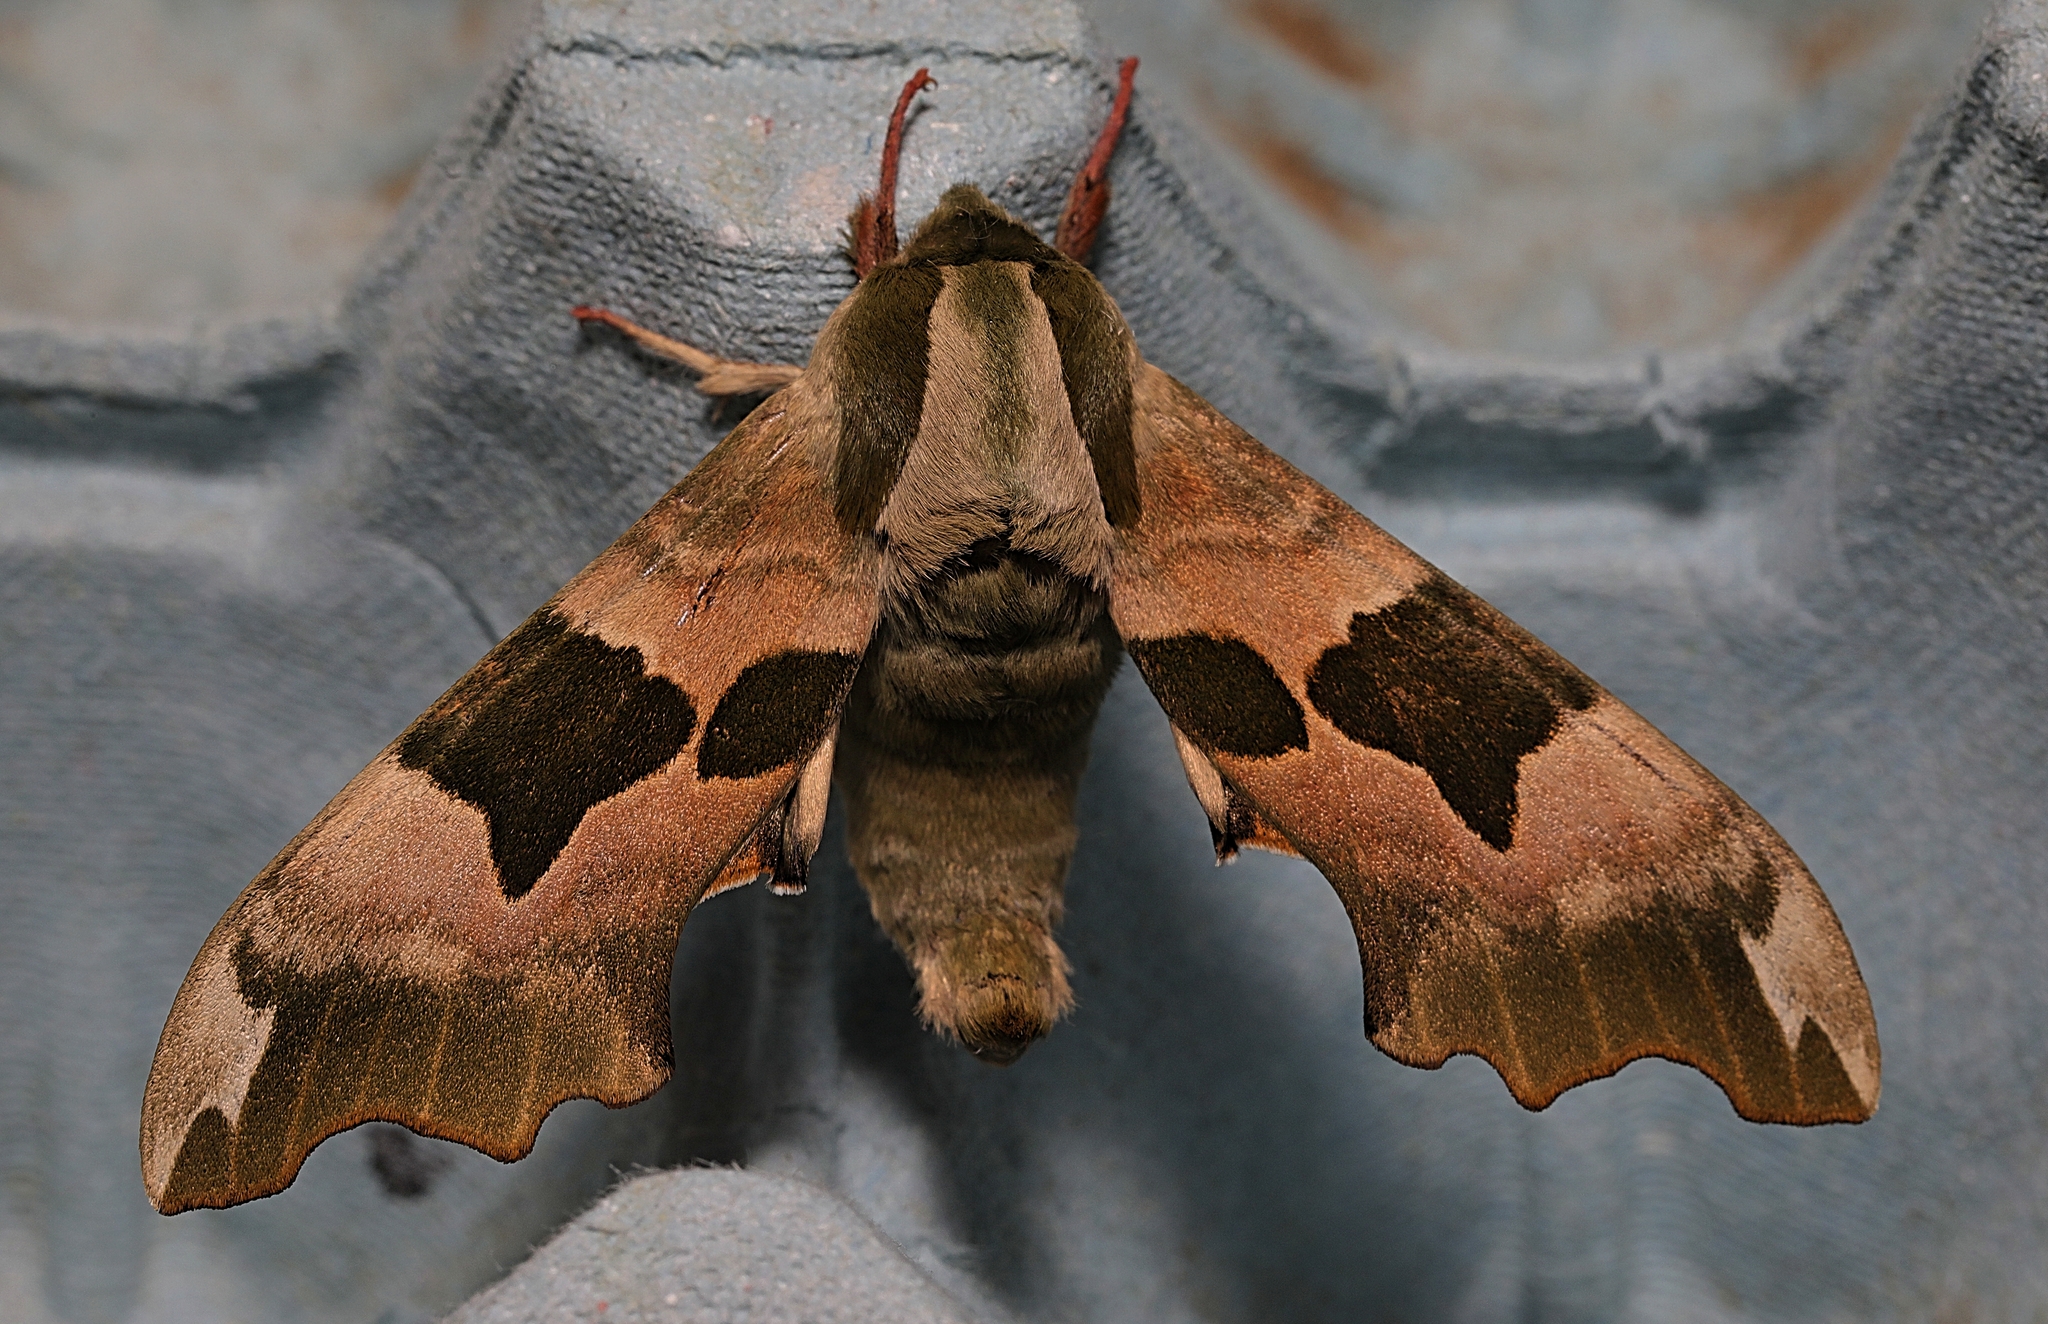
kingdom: Animalia
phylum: Arthropoda
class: Insecta
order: Lepidoptera
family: Sphingidae
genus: Mimas
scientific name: Mimas tiliae
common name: Lime hawk-moth
